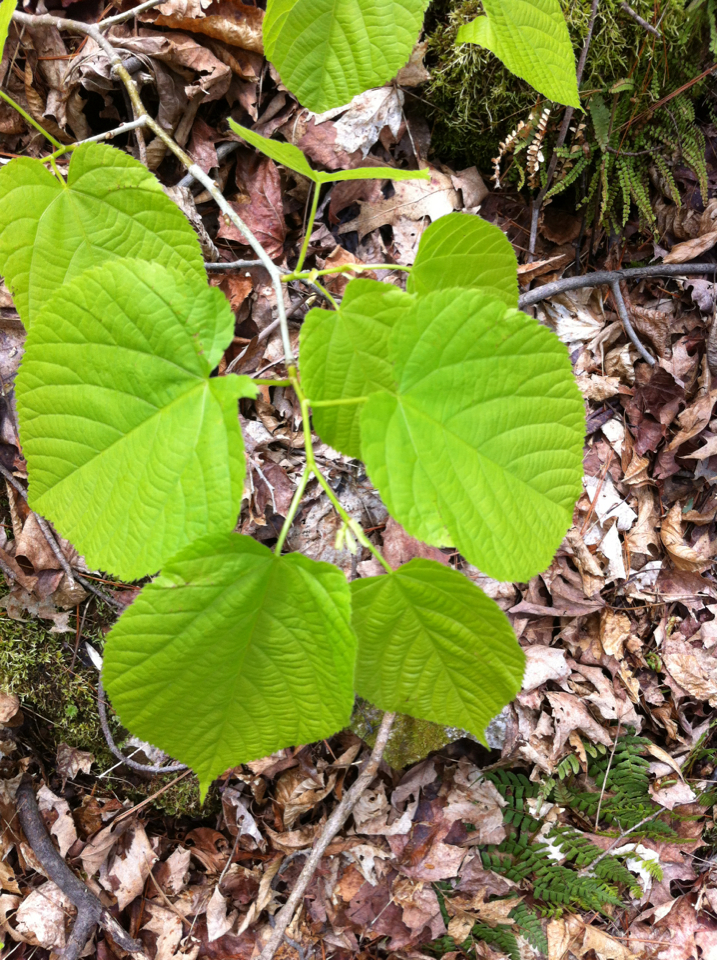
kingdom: Plantae
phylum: Tracheophyta
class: Magnoliopsida
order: Malvales
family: Malvaceae
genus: Tilia
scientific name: Tilia americana
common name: Basswood
